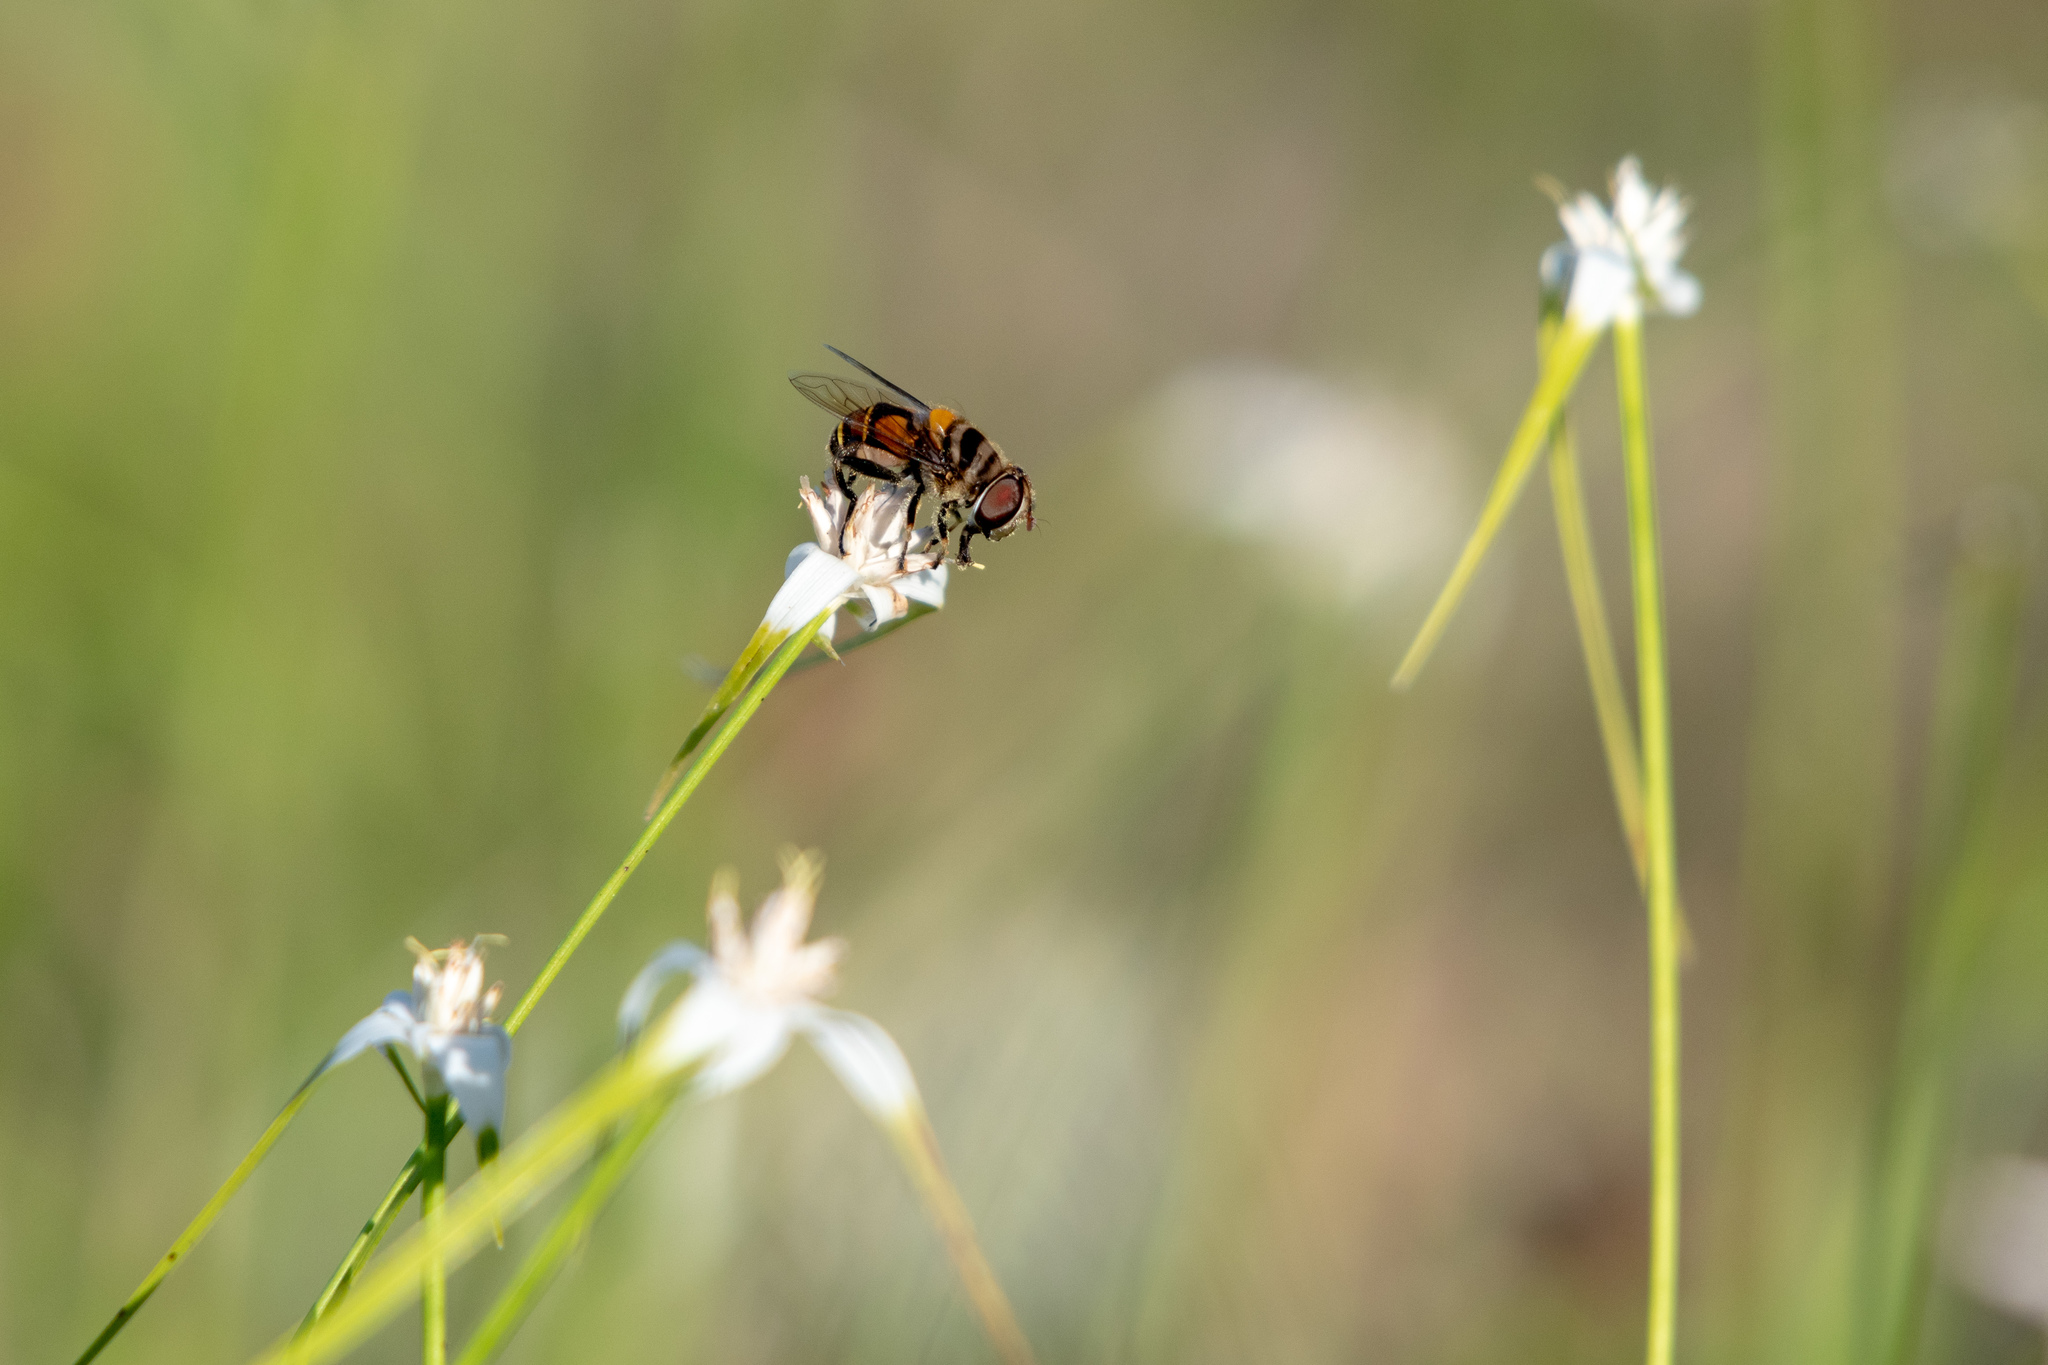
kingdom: Animalia
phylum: Arthropoda
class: Insecta
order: Diptera
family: Syrphidae
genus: Palpada
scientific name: Palpada agrorum
